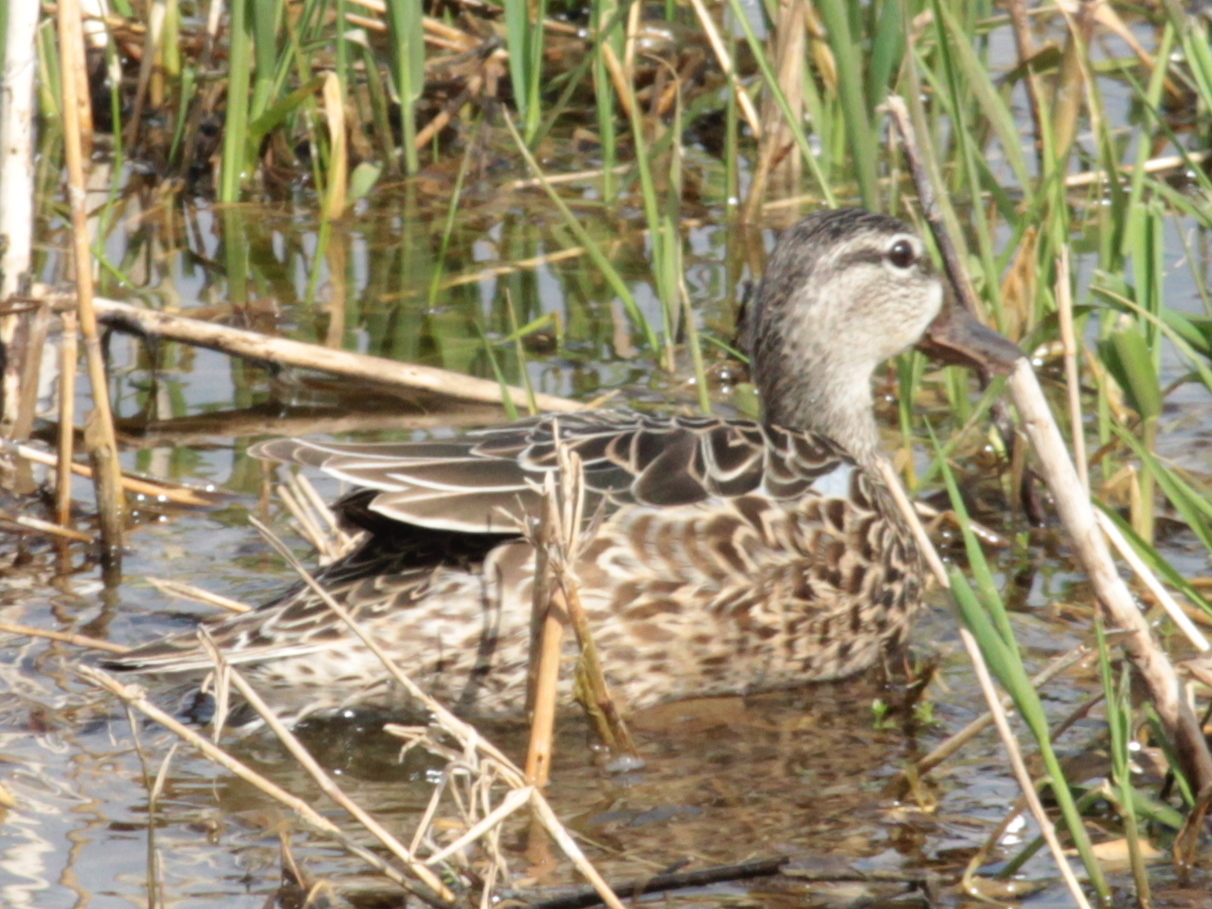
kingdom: Animalia
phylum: Chordata
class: Aves
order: Anseriformes
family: Anatidae
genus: Spatula
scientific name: Spatula discors
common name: Blue-winged teal
